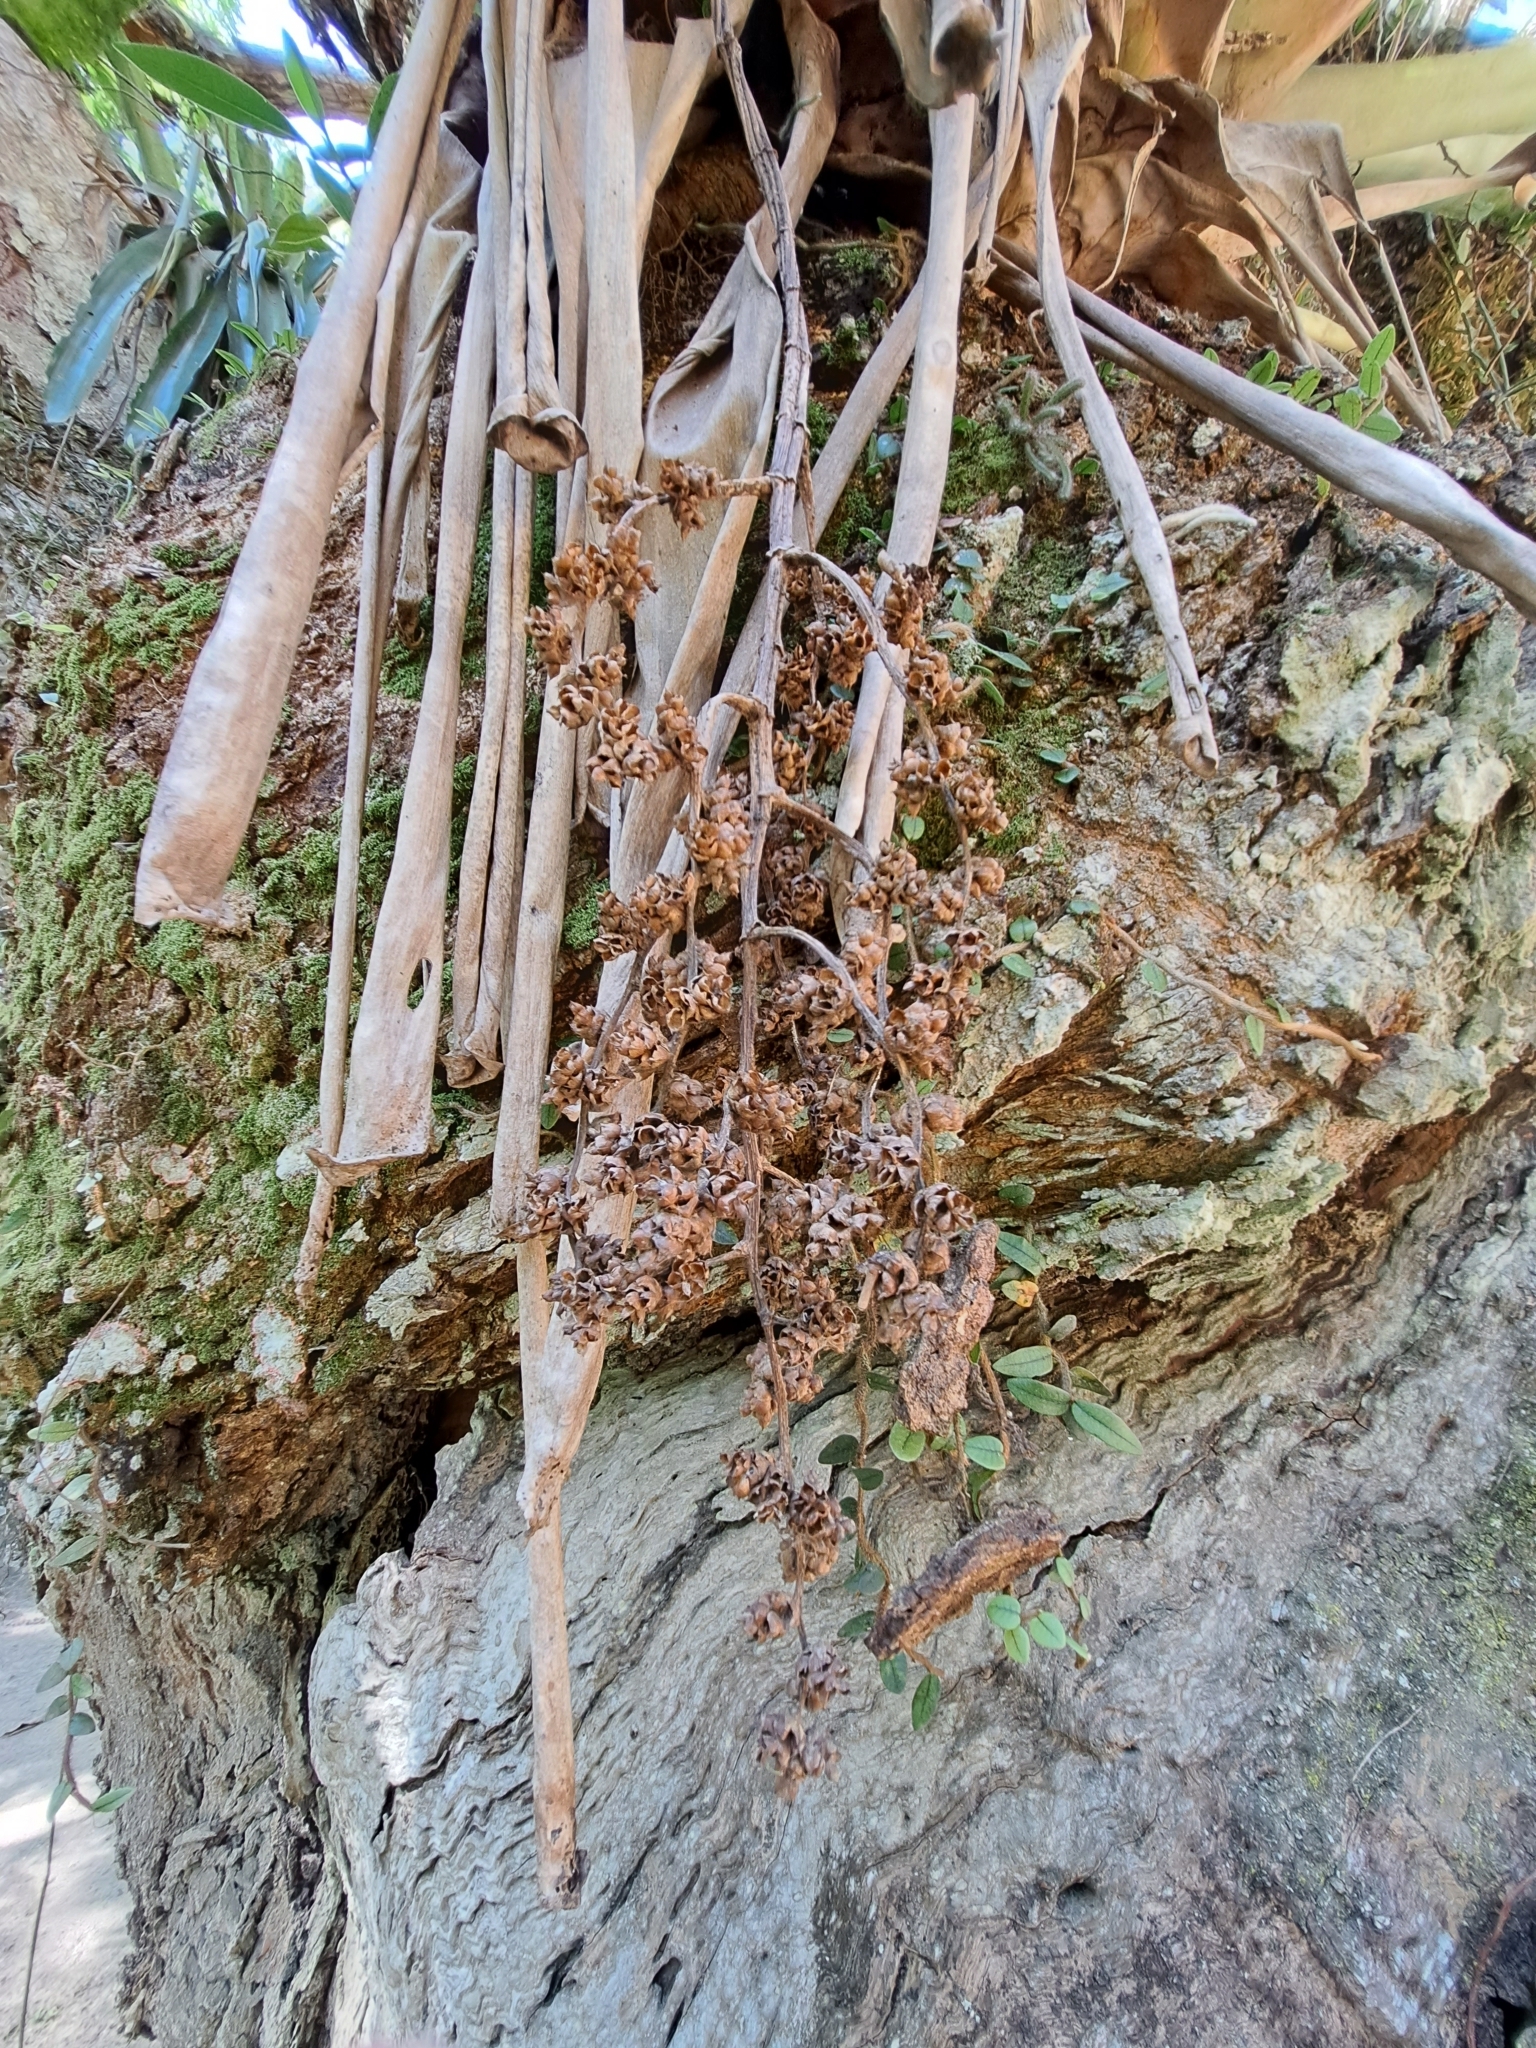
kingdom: Plantae
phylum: Tracheophyta
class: Liliopsida
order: Poales
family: Bromeliaceae
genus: Hohenbergia
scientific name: Hohenbergia augusta
